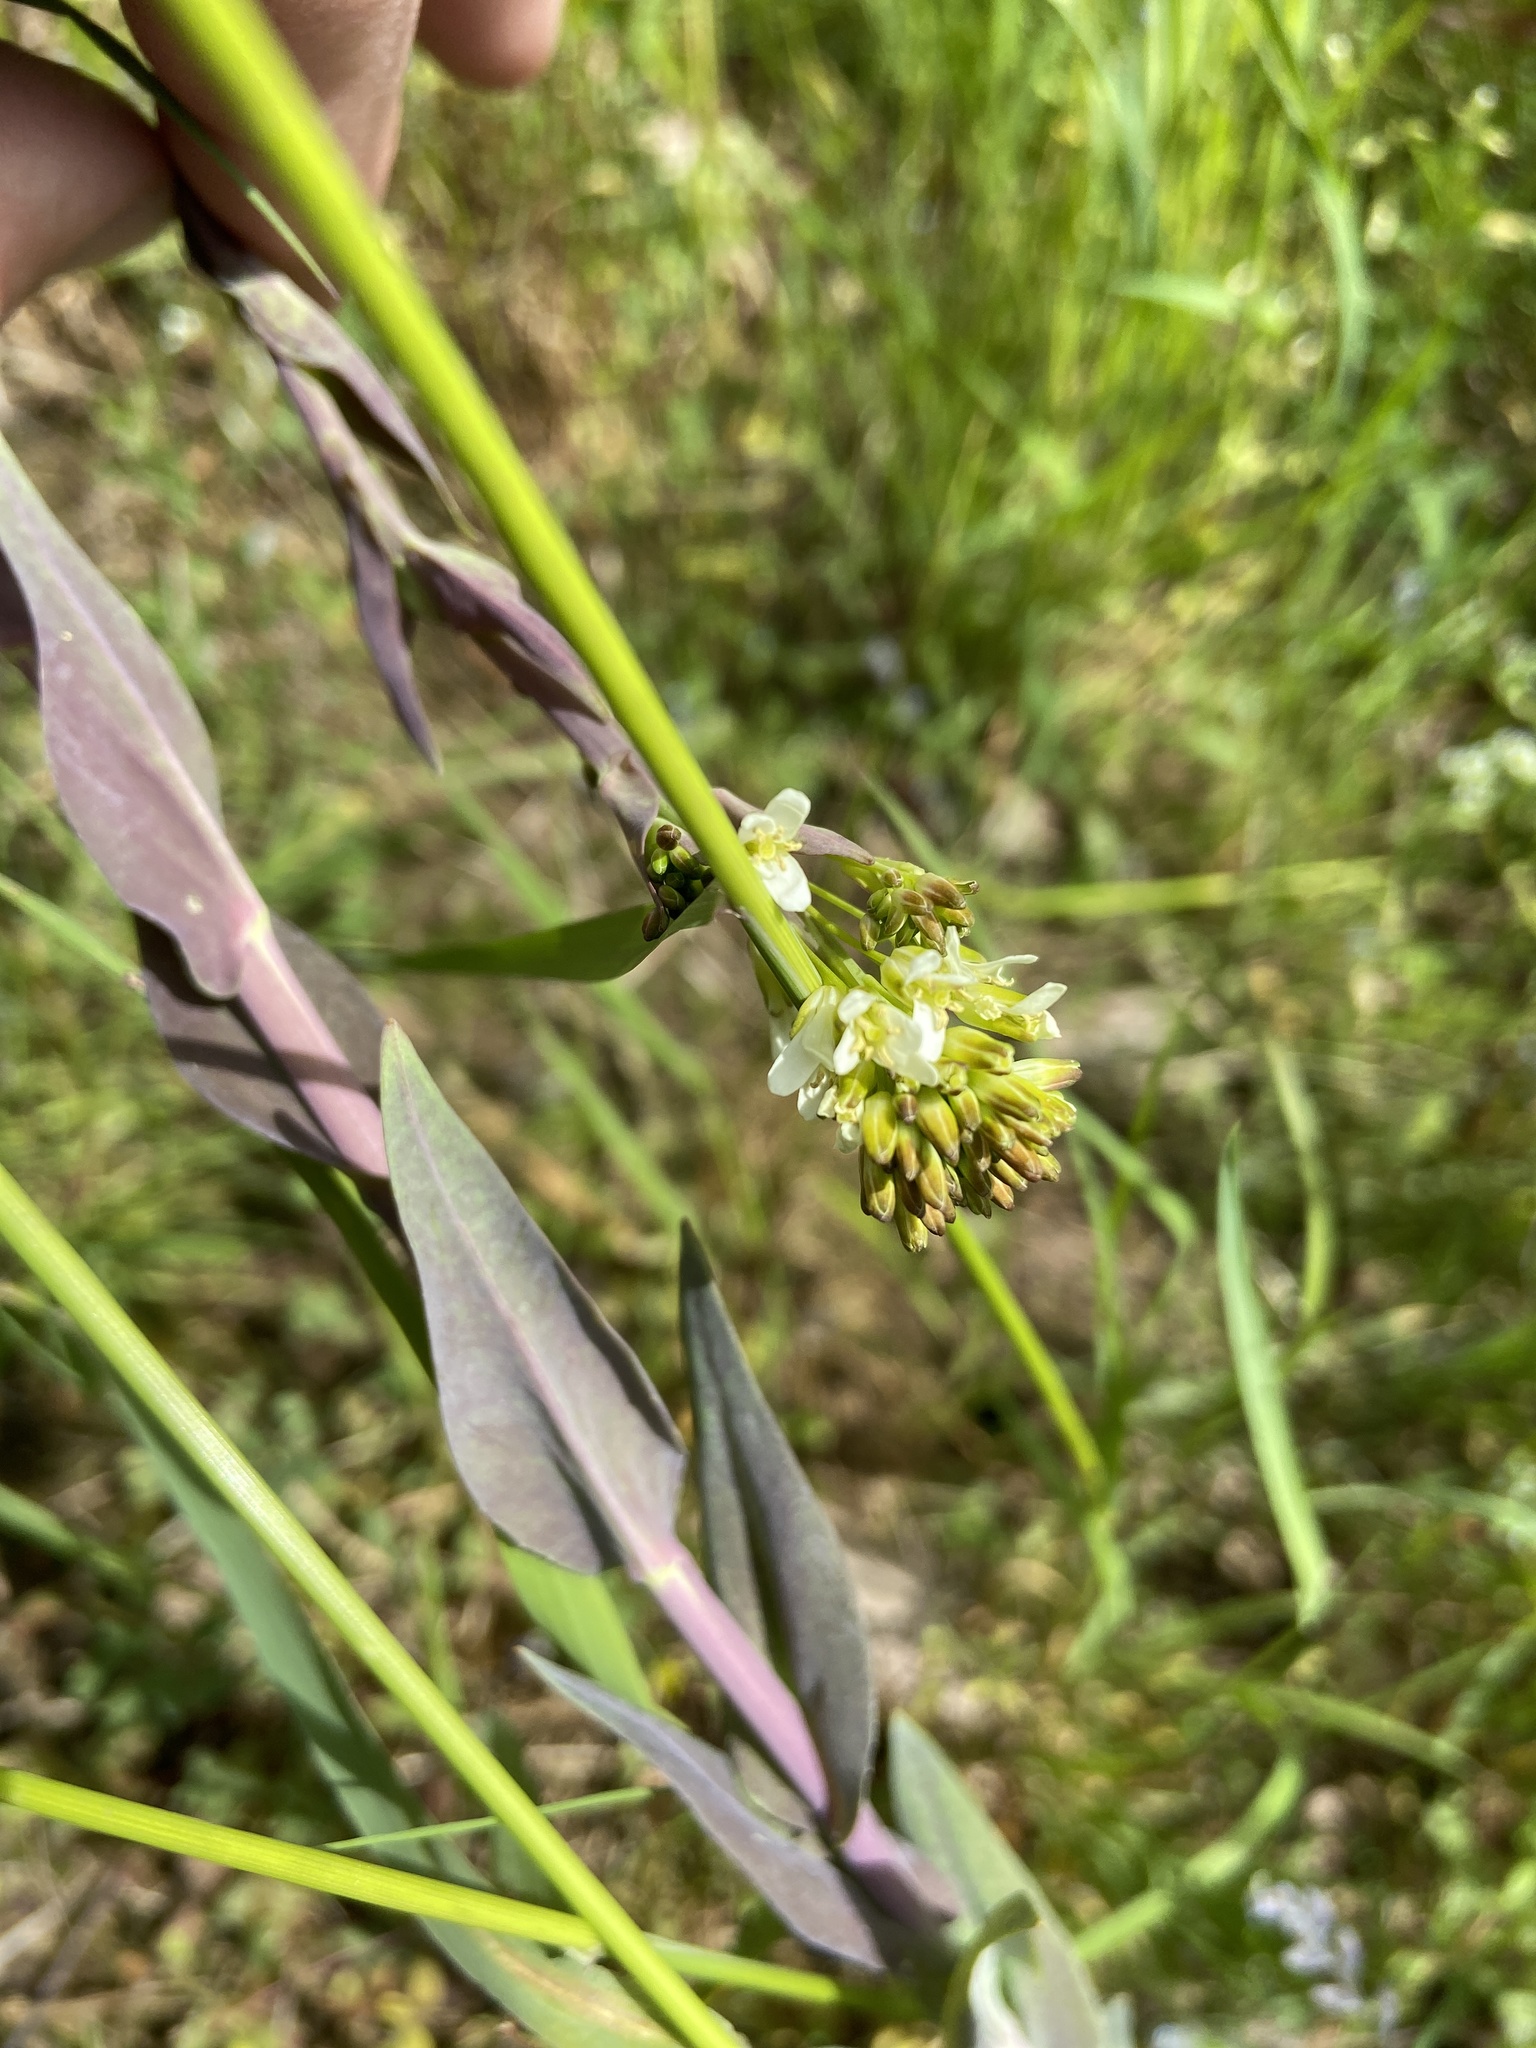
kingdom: Plantae
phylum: Tracheophyta
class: Magnoliopsida
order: Brassicales
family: Brassicaceae
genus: Turritis
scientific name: Turritis glabra
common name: Tower rockcress
